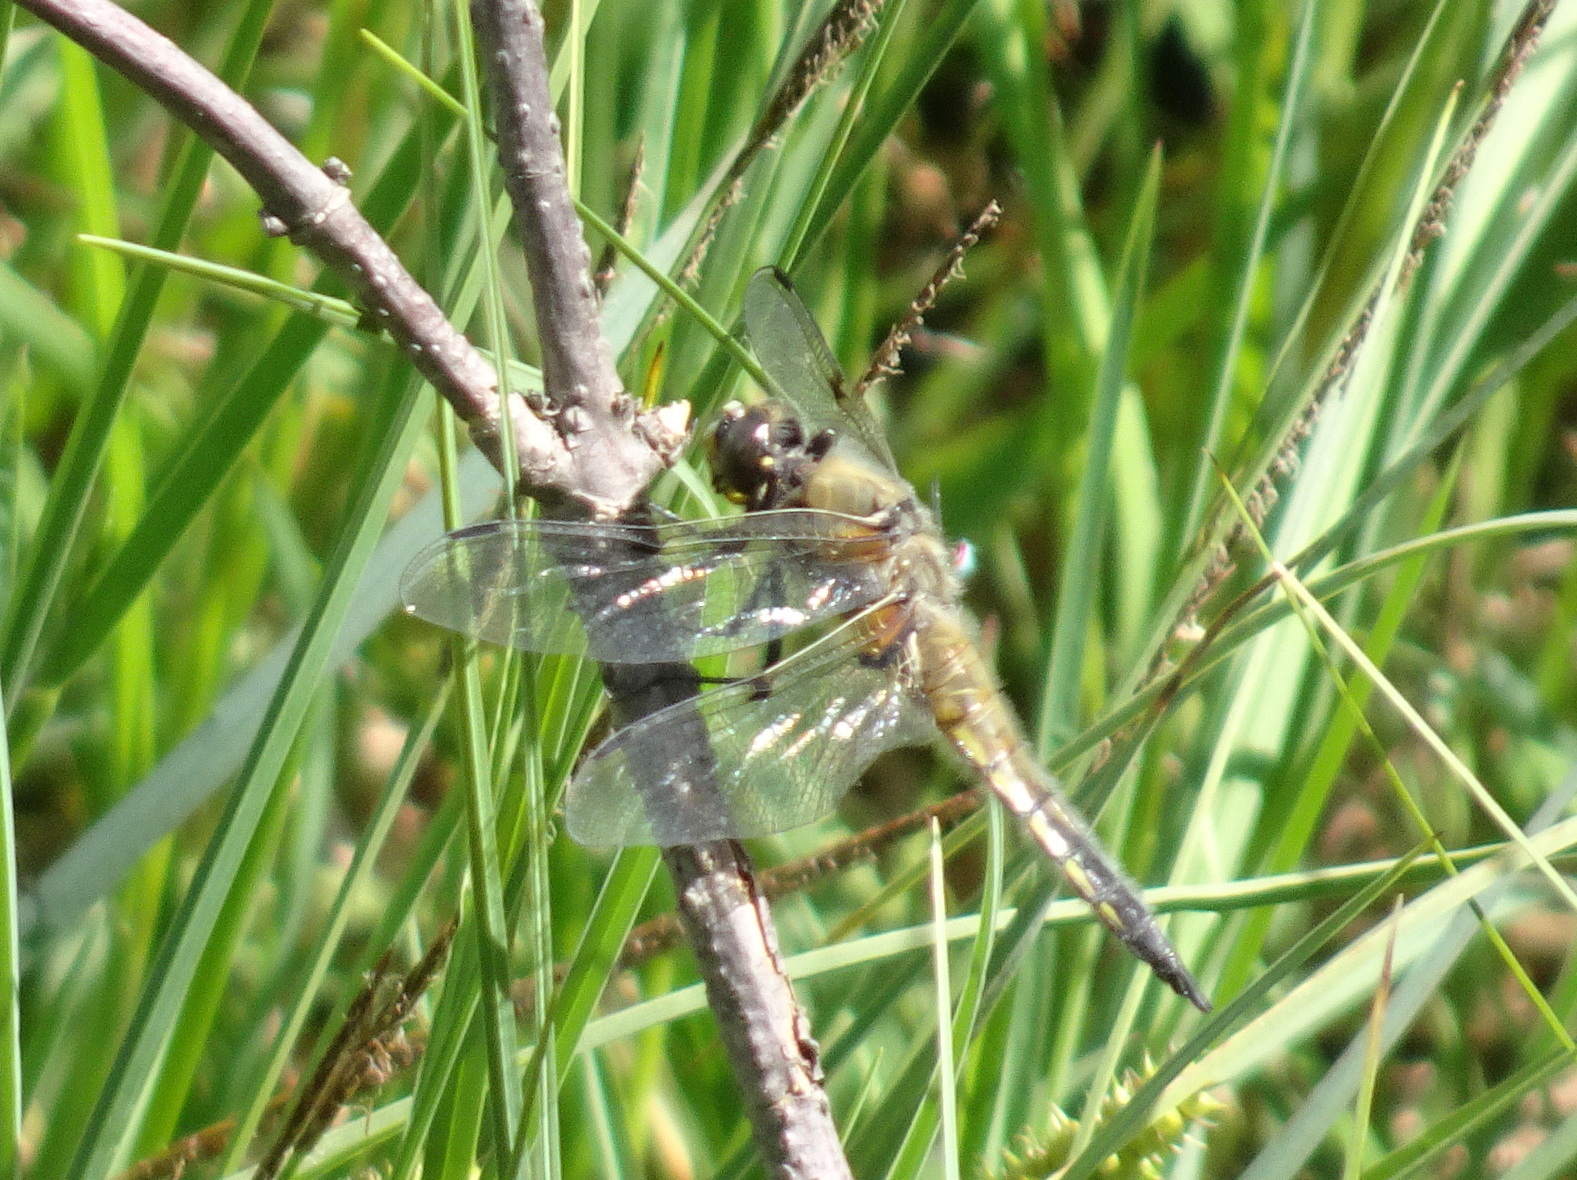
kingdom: Animalia
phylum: Arthropoda
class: Insecta
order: Odonata
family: Libellulidae
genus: Libellula
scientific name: Libellula quadrimaculata
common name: Four-spotted chaser
